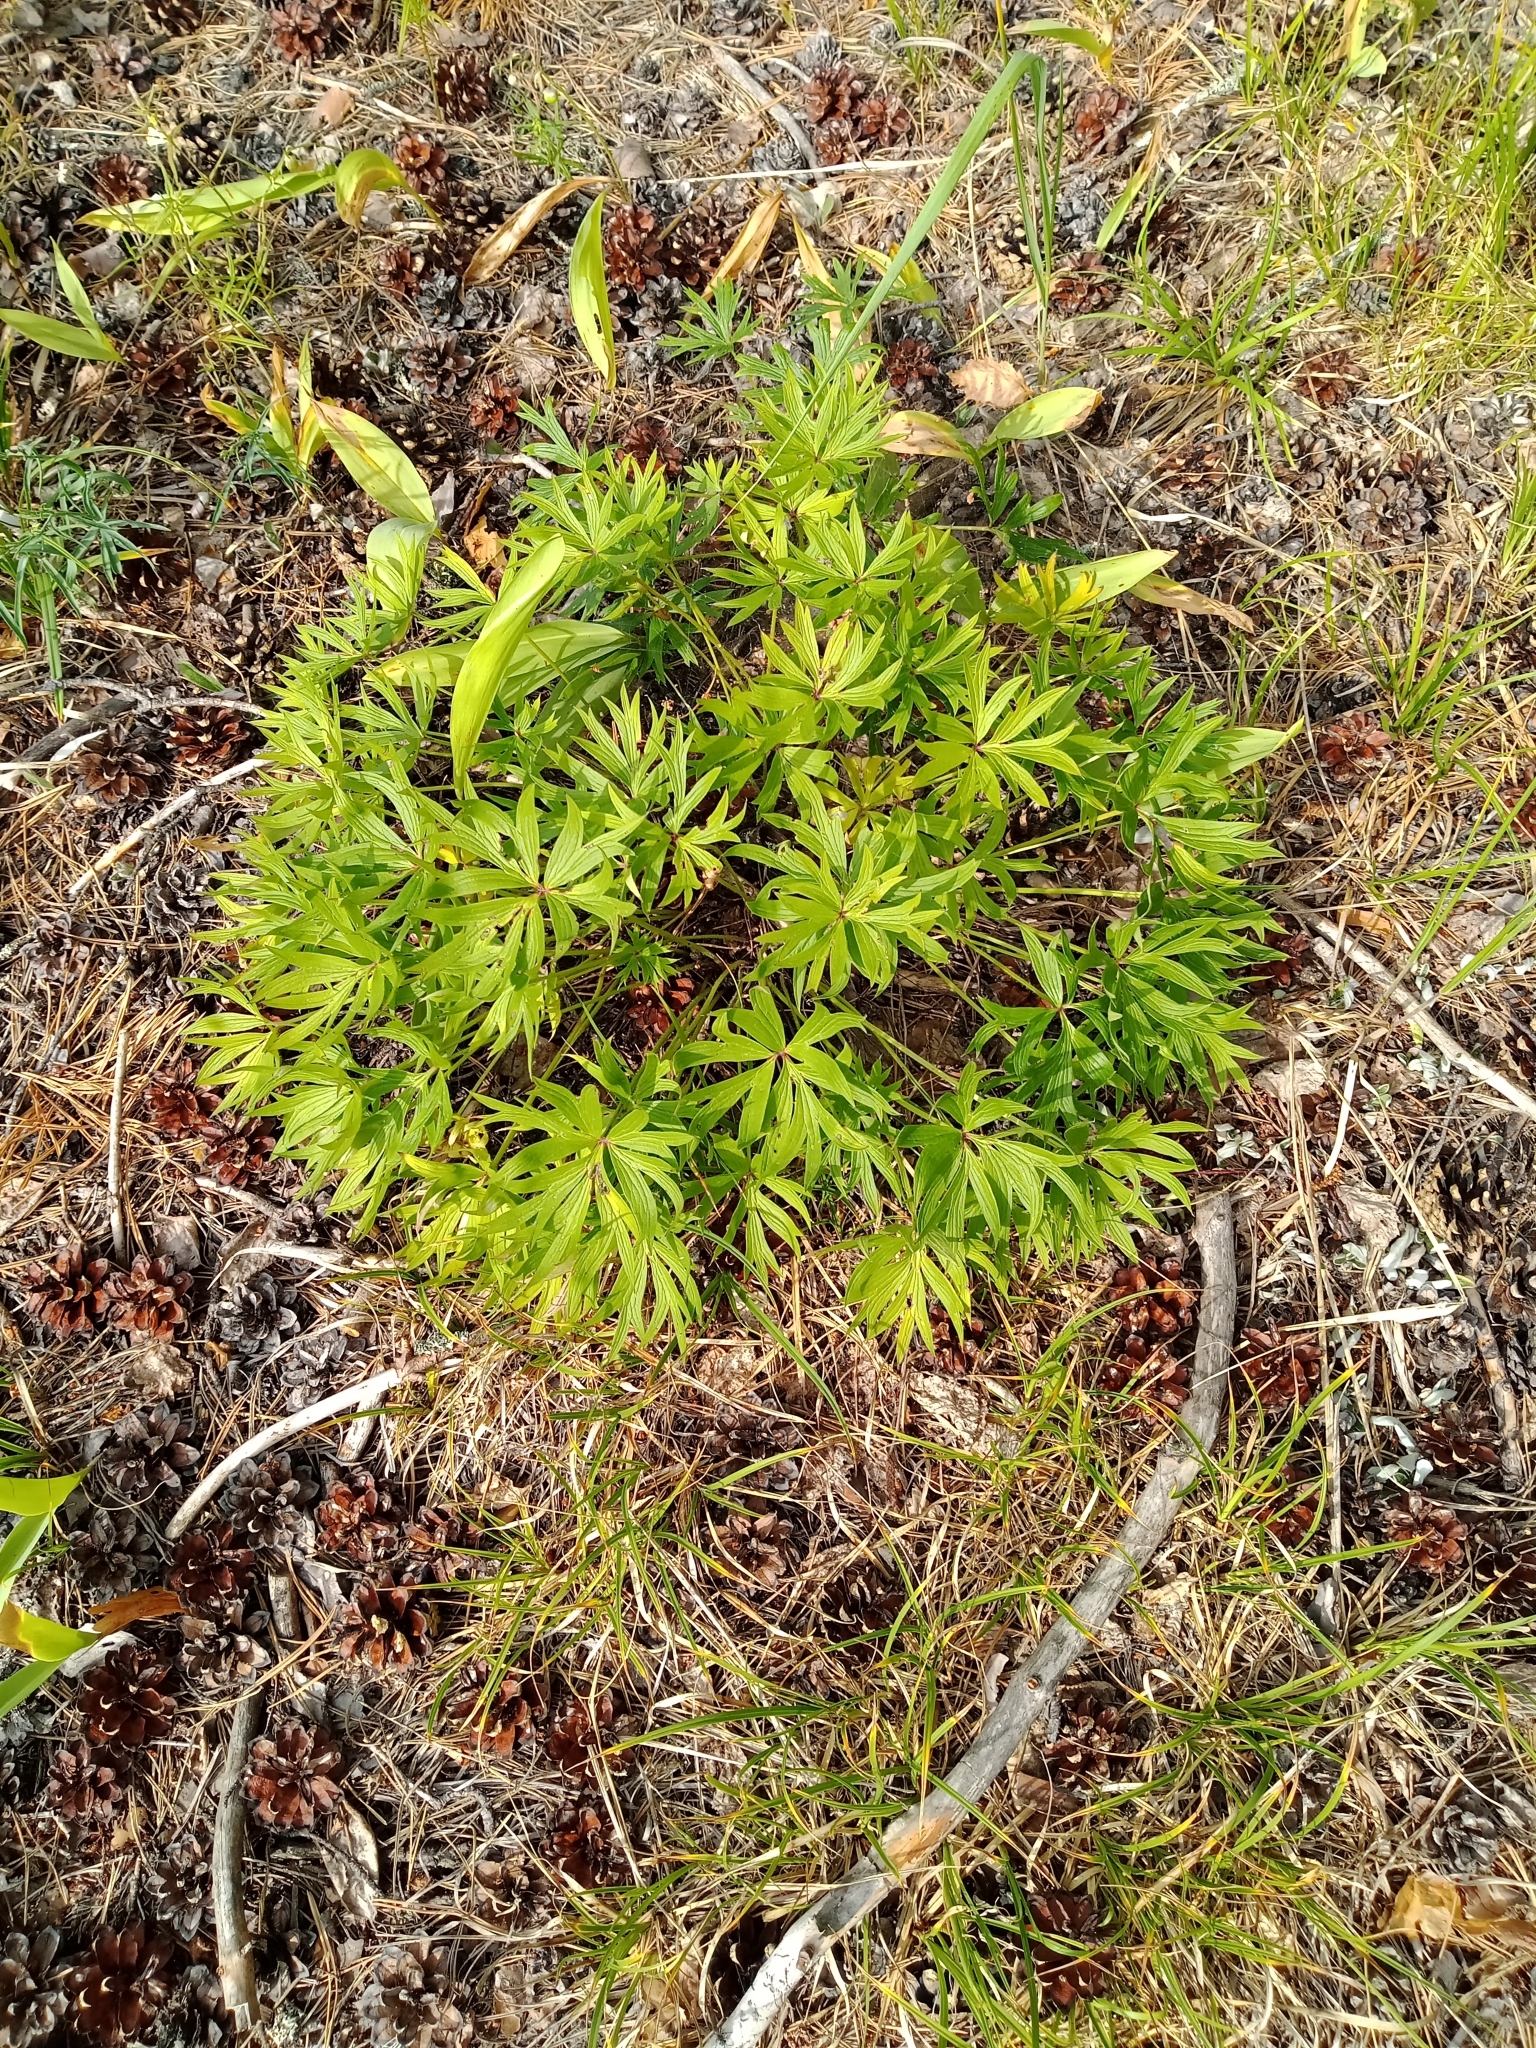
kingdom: Plantae
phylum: Tracheophyta
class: Magnoliopsida
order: Ranunculales
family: Ranunculaceae
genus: Pulsatilla
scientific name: Pulsatilla patens
